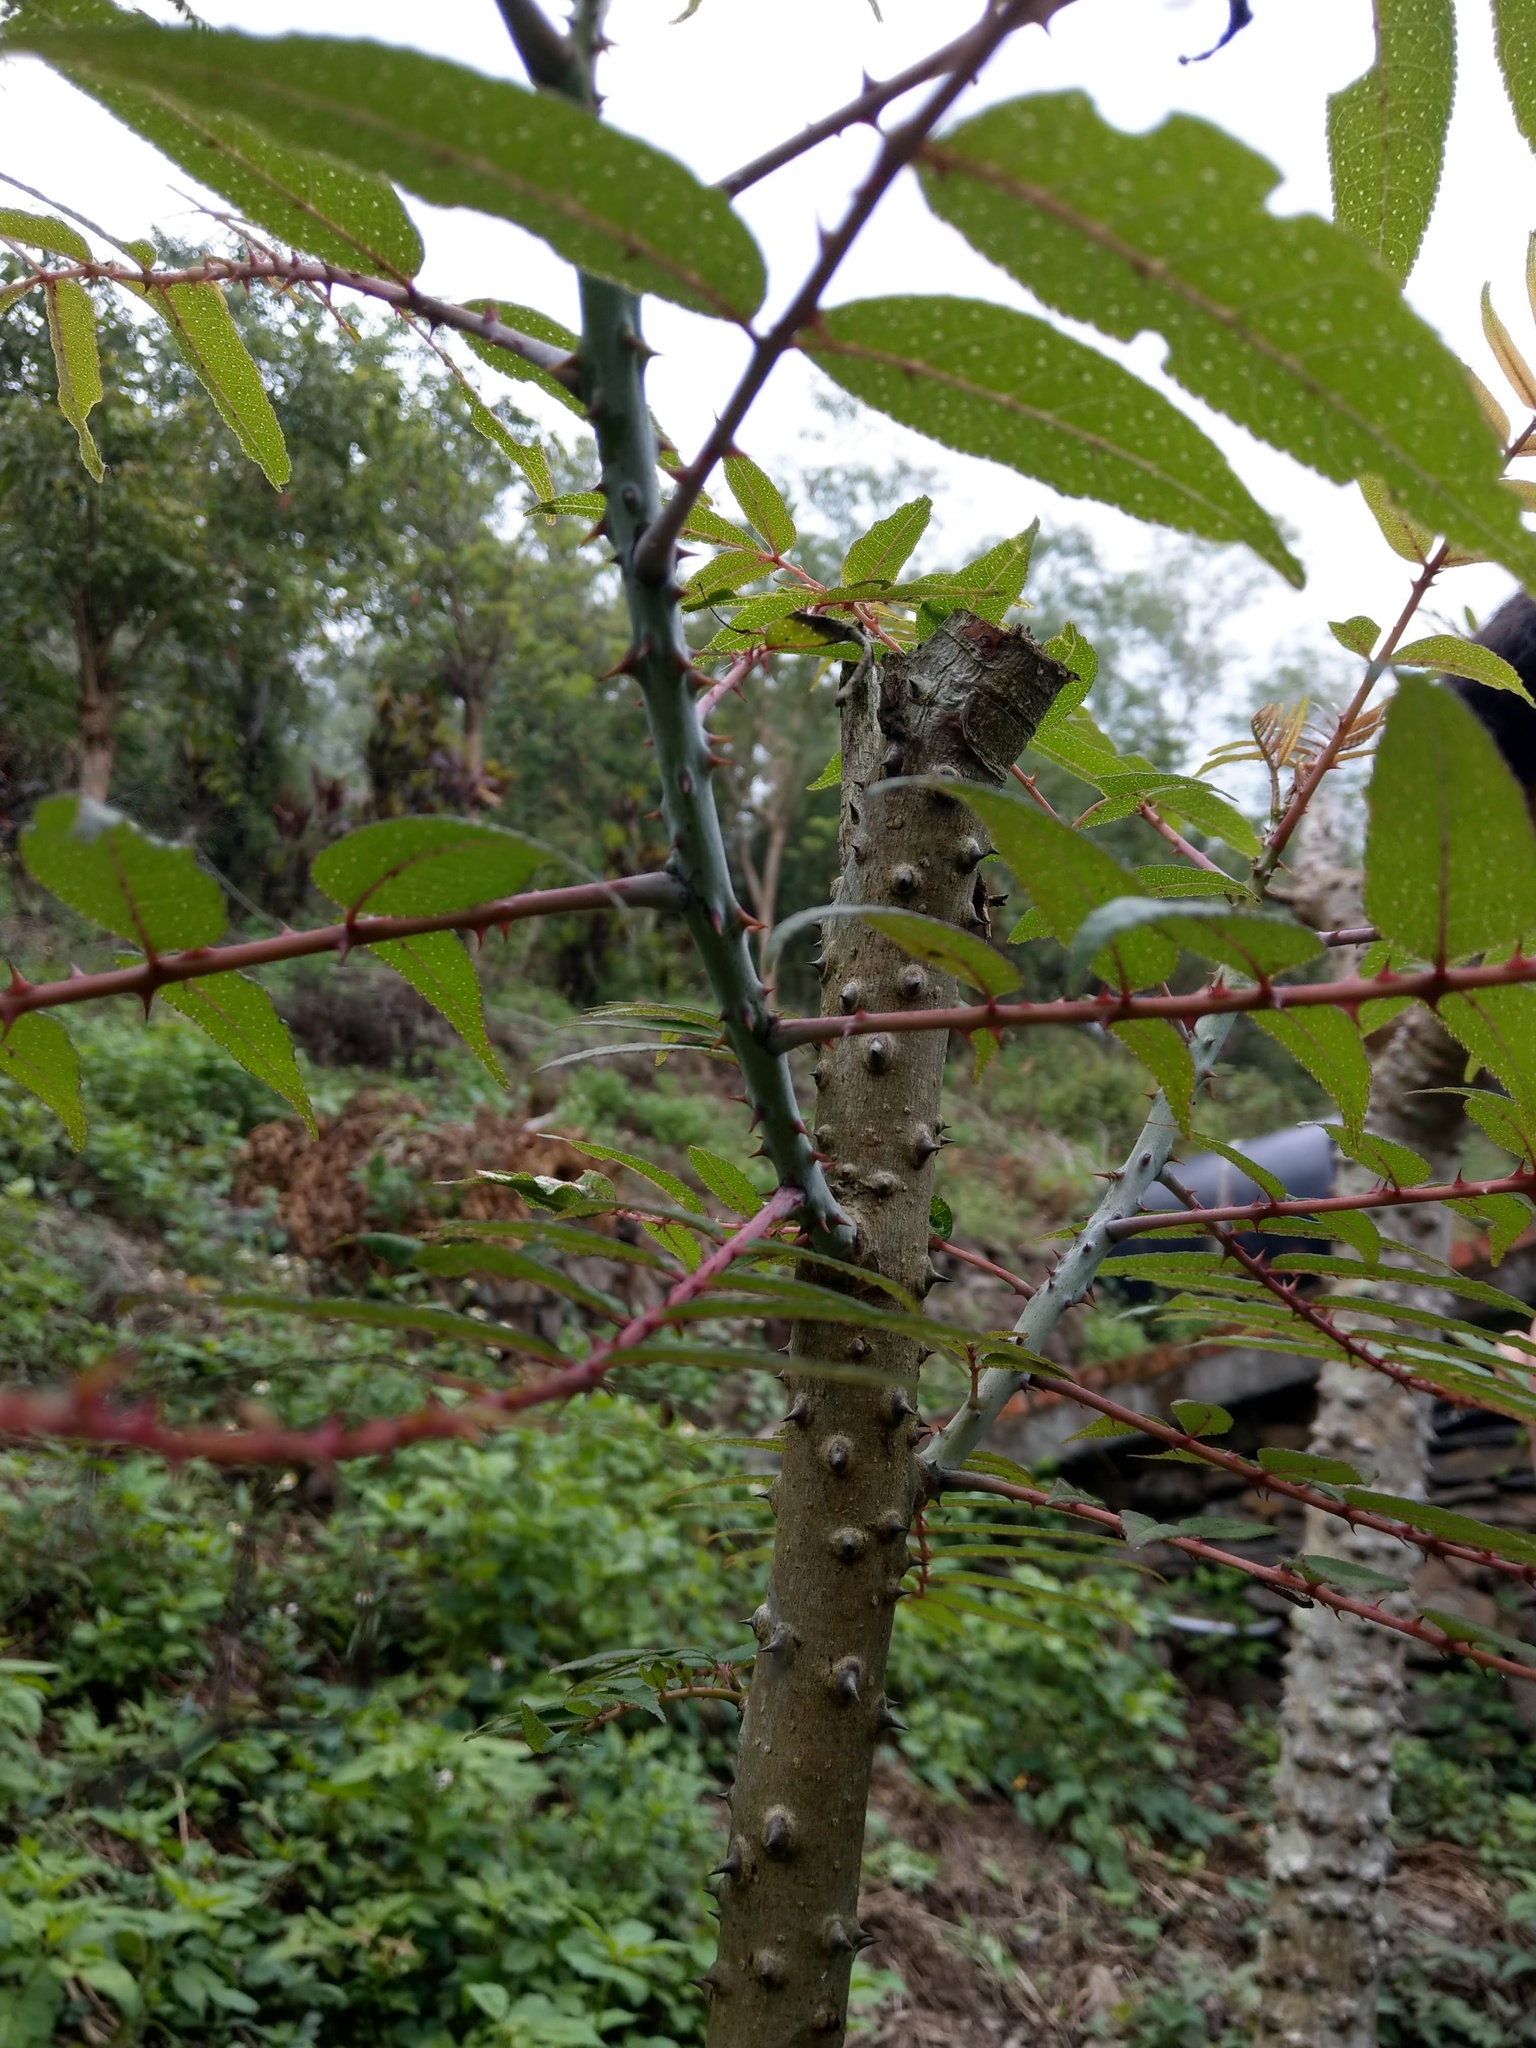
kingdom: Plantae
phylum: Tracheophyta
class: Magnoliopsida
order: Sapindales
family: Rutaceae
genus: Zanthoxylum
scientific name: Zanthoxylum ailanthoides
